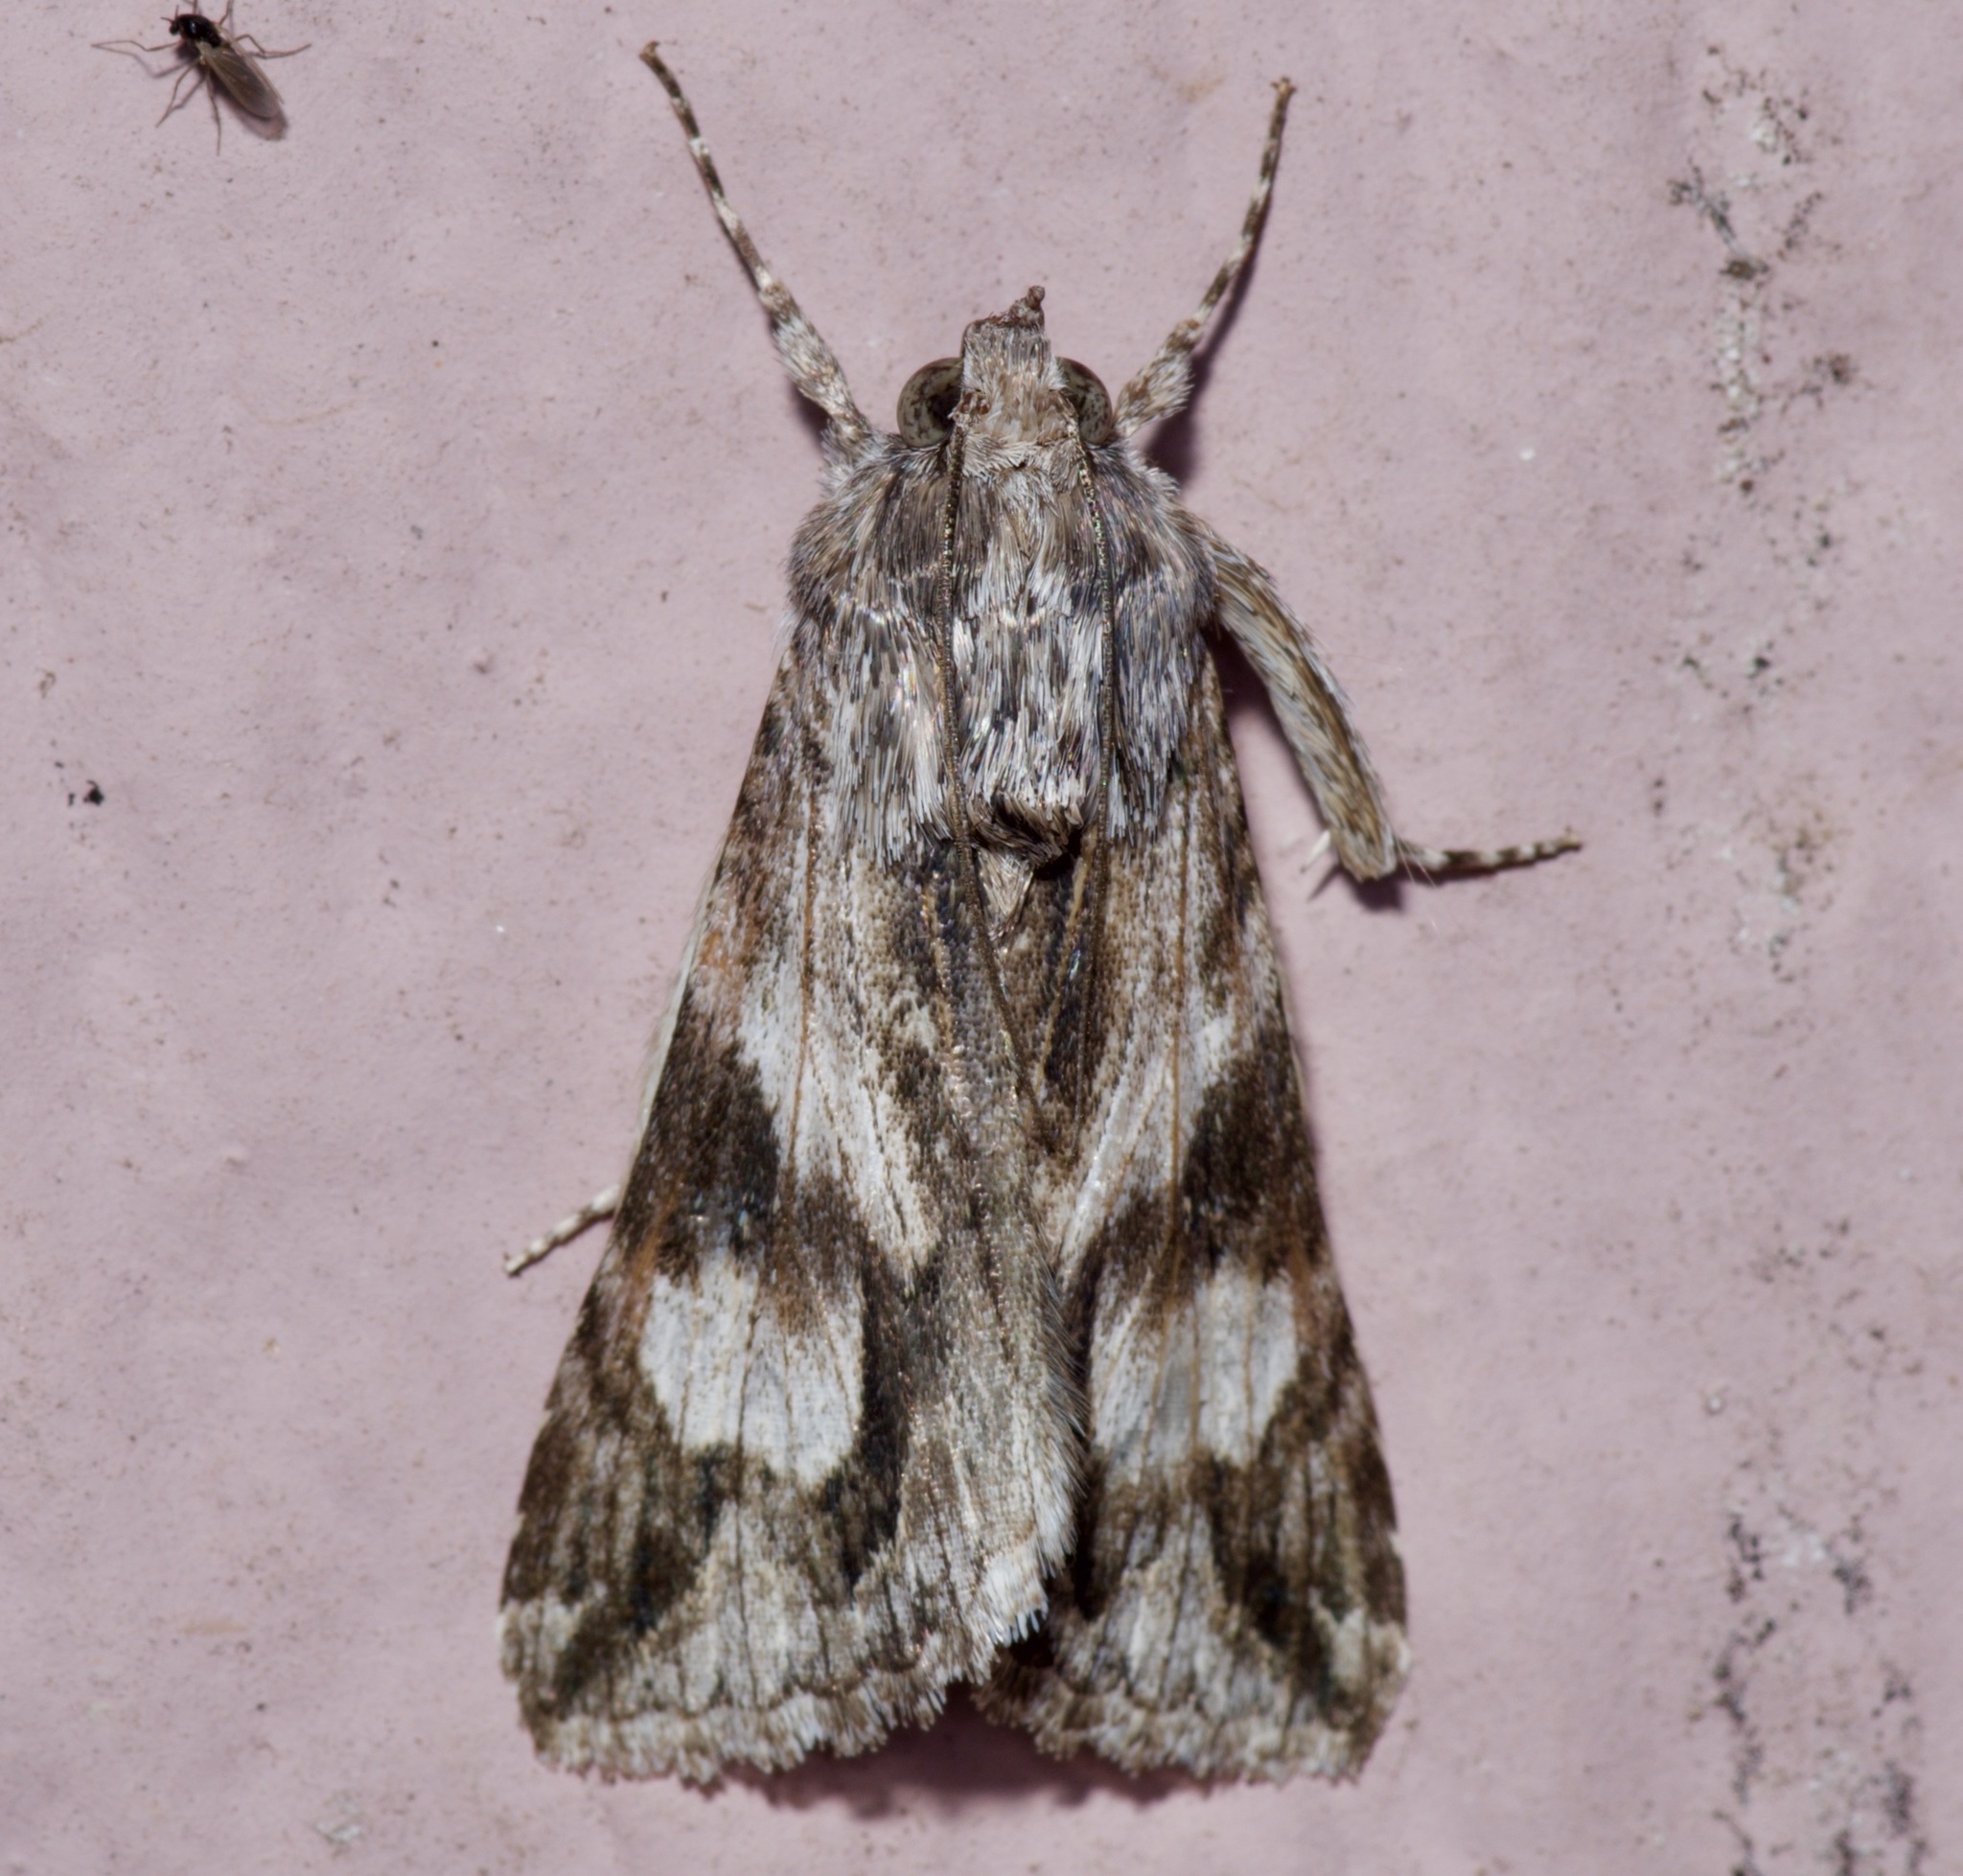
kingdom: Animalia
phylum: Arthropoda
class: Insecta
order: Lepidoptera
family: Erebidae
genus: Melipotis
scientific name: Melipotis jucunda
